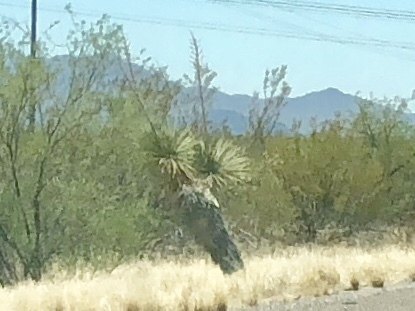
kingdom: Plantae
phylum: Tracheophyta
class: Liliopsida
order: Asparagales
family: Asparagaceae
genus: Yucca
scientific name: Yucca elata
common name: Palmella
